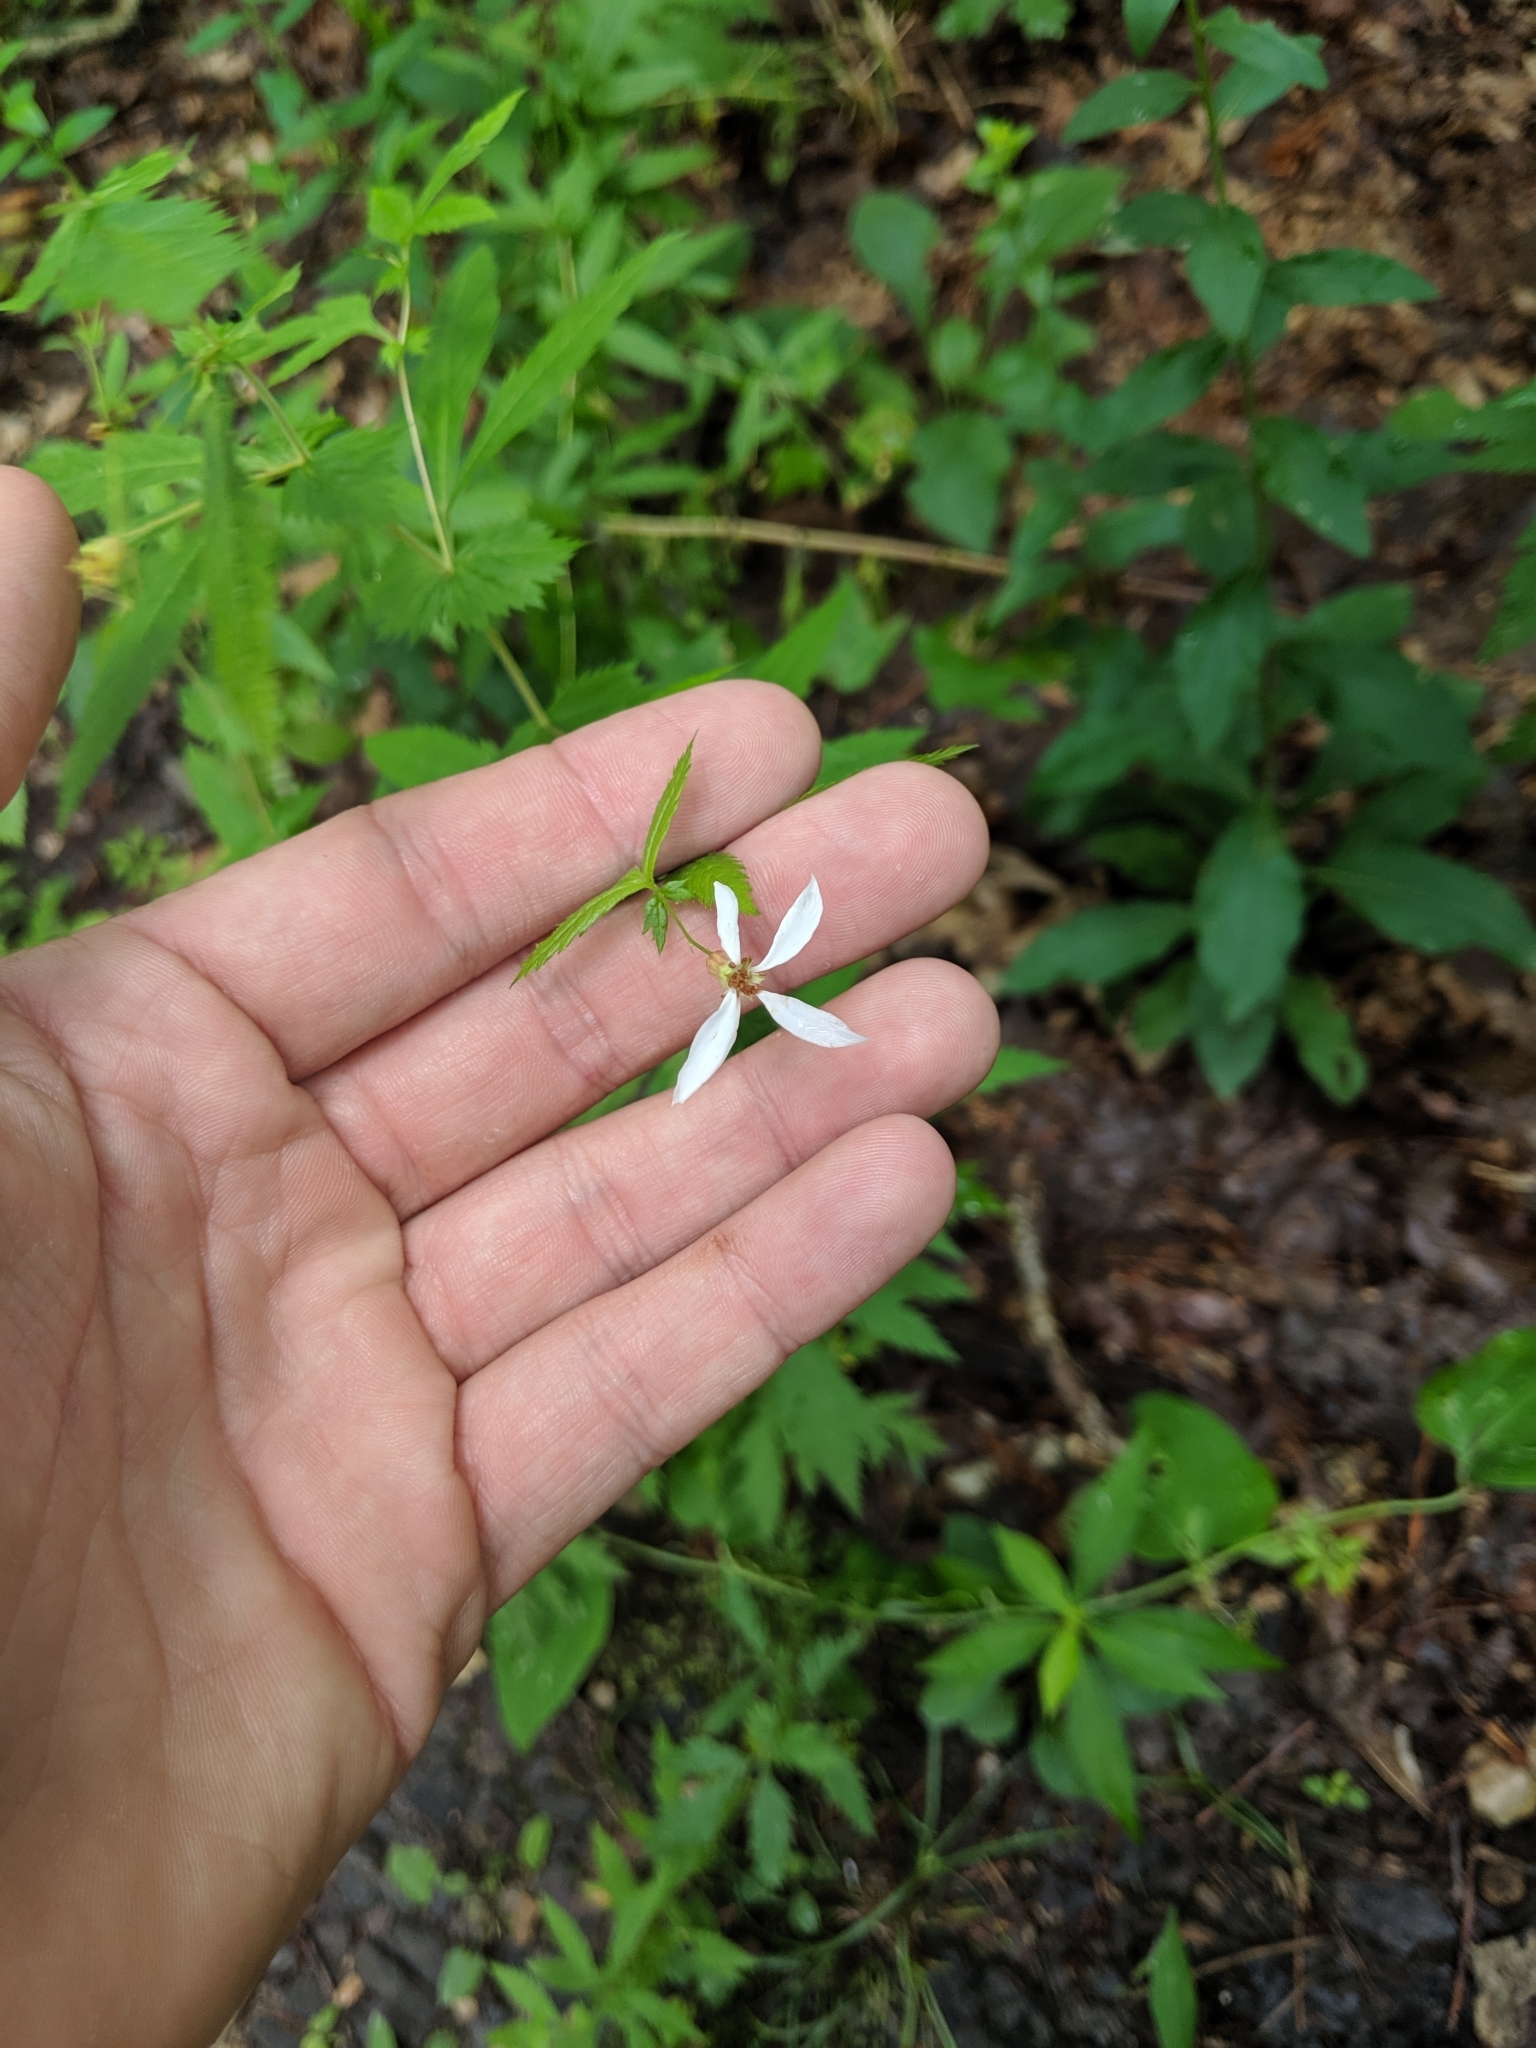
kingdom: Plantae
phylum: Tracheophyta
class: Magnoliopsida
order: Rosales
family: Rosaceae
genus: Gillenia
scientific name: Gillenia stipulata
